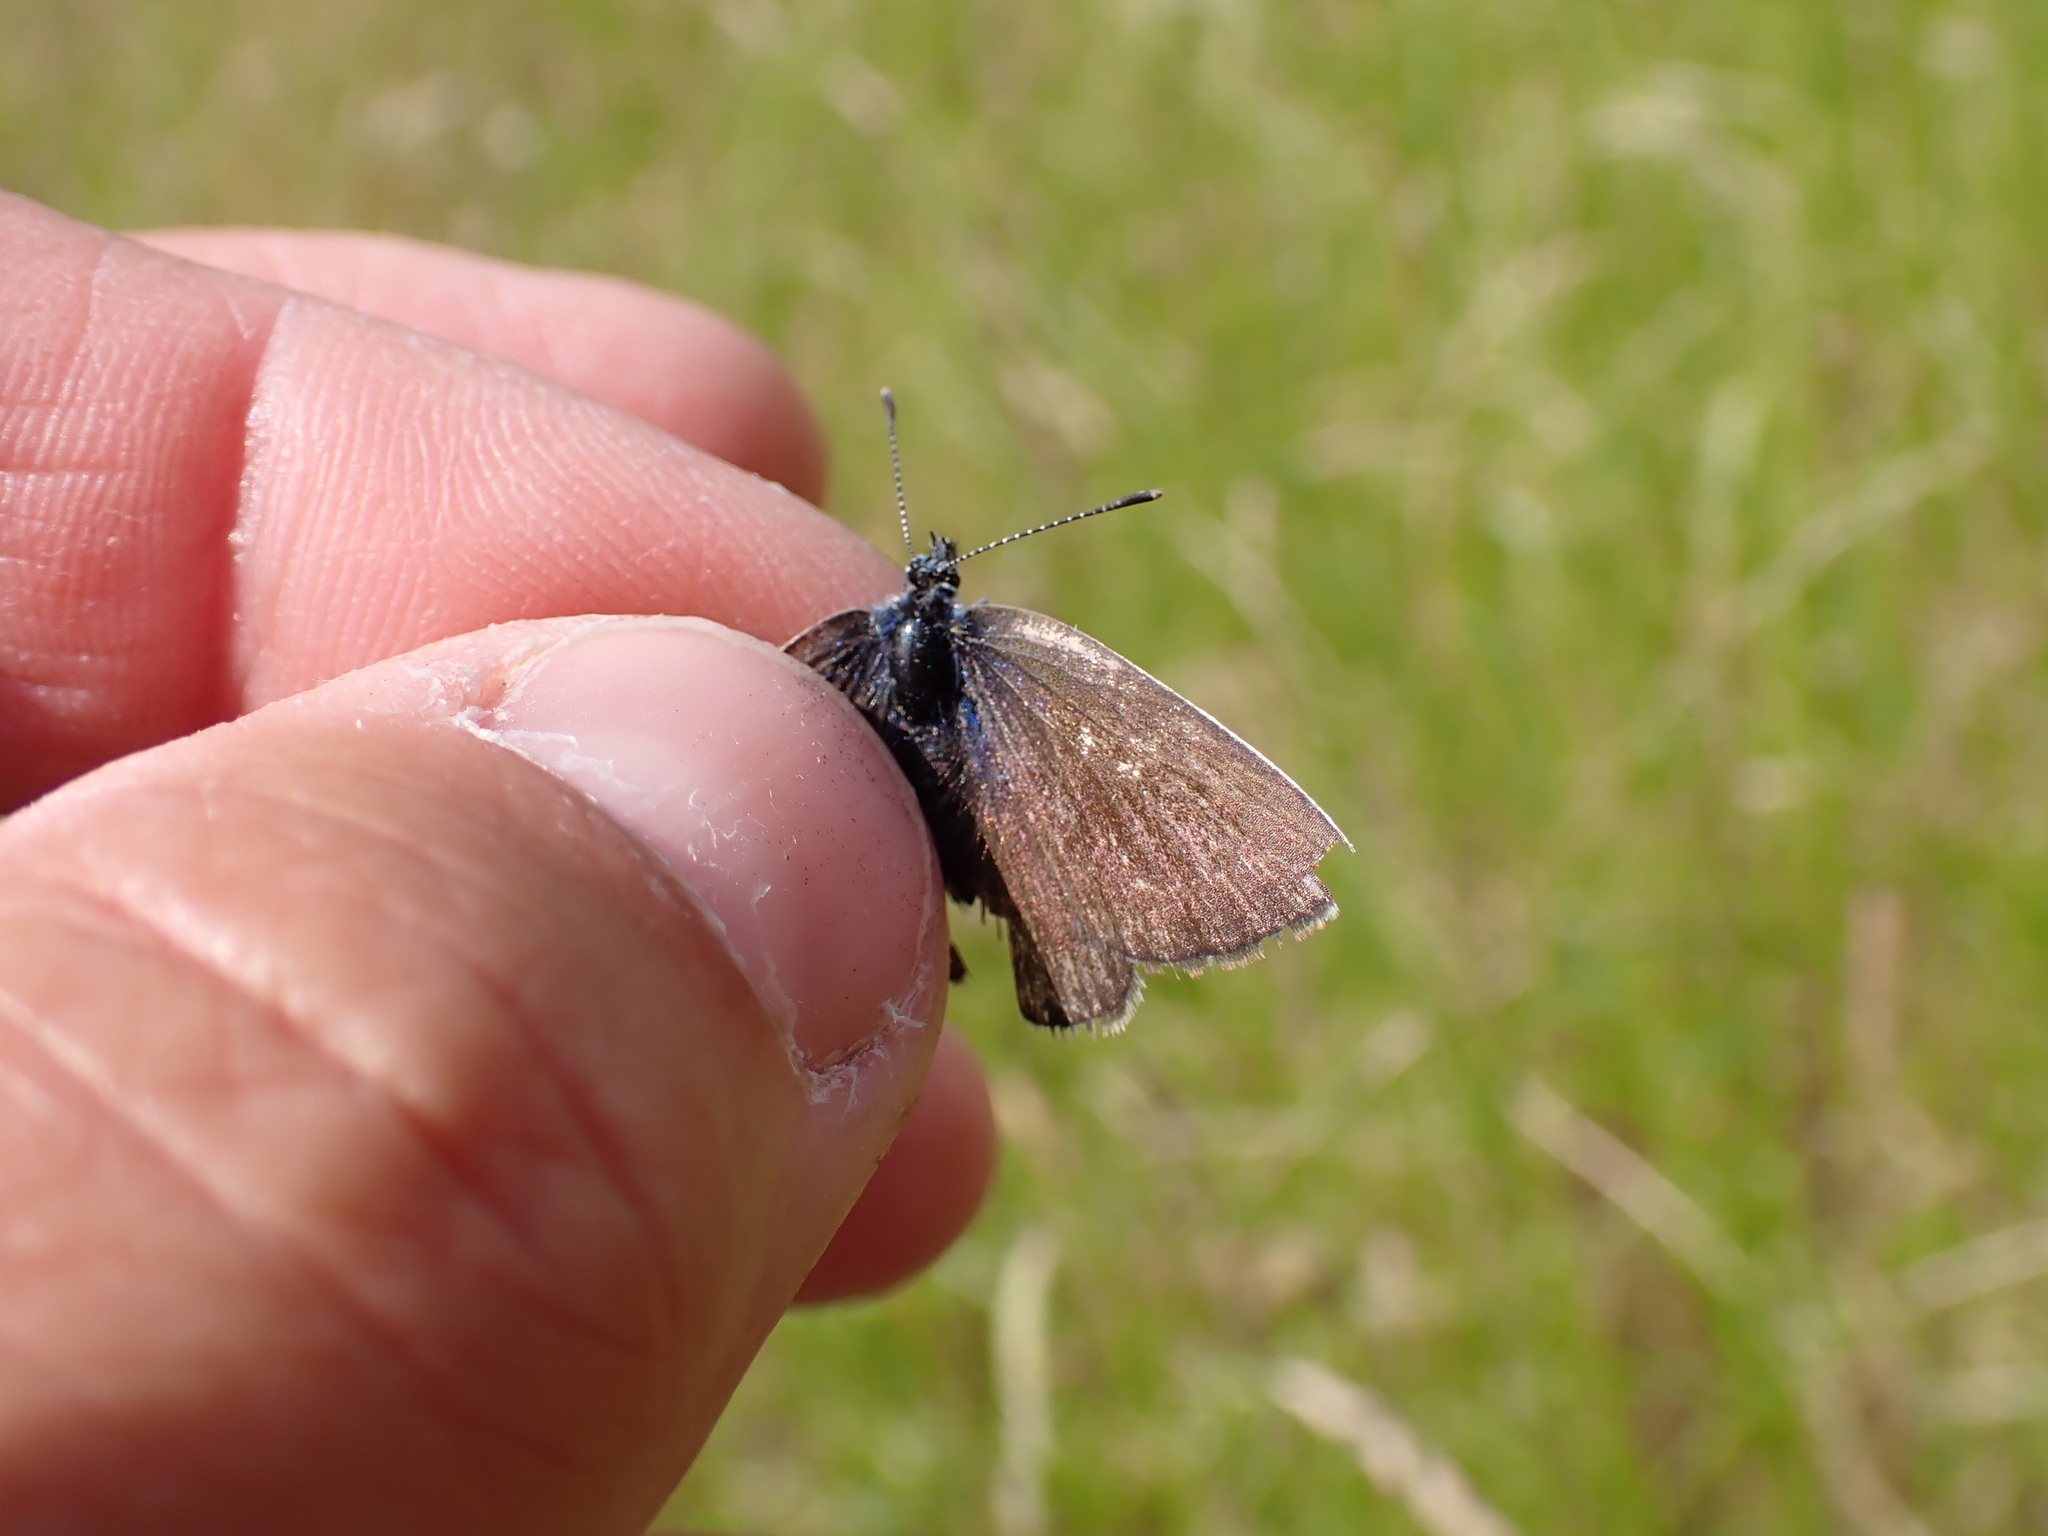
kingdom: Animalia
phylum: Arthropoda
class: Insecta
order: Lepidoptera
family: Lycaenidae
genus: Cyaniris
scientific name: Cyaniris semiargus
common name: Mazarine blue
